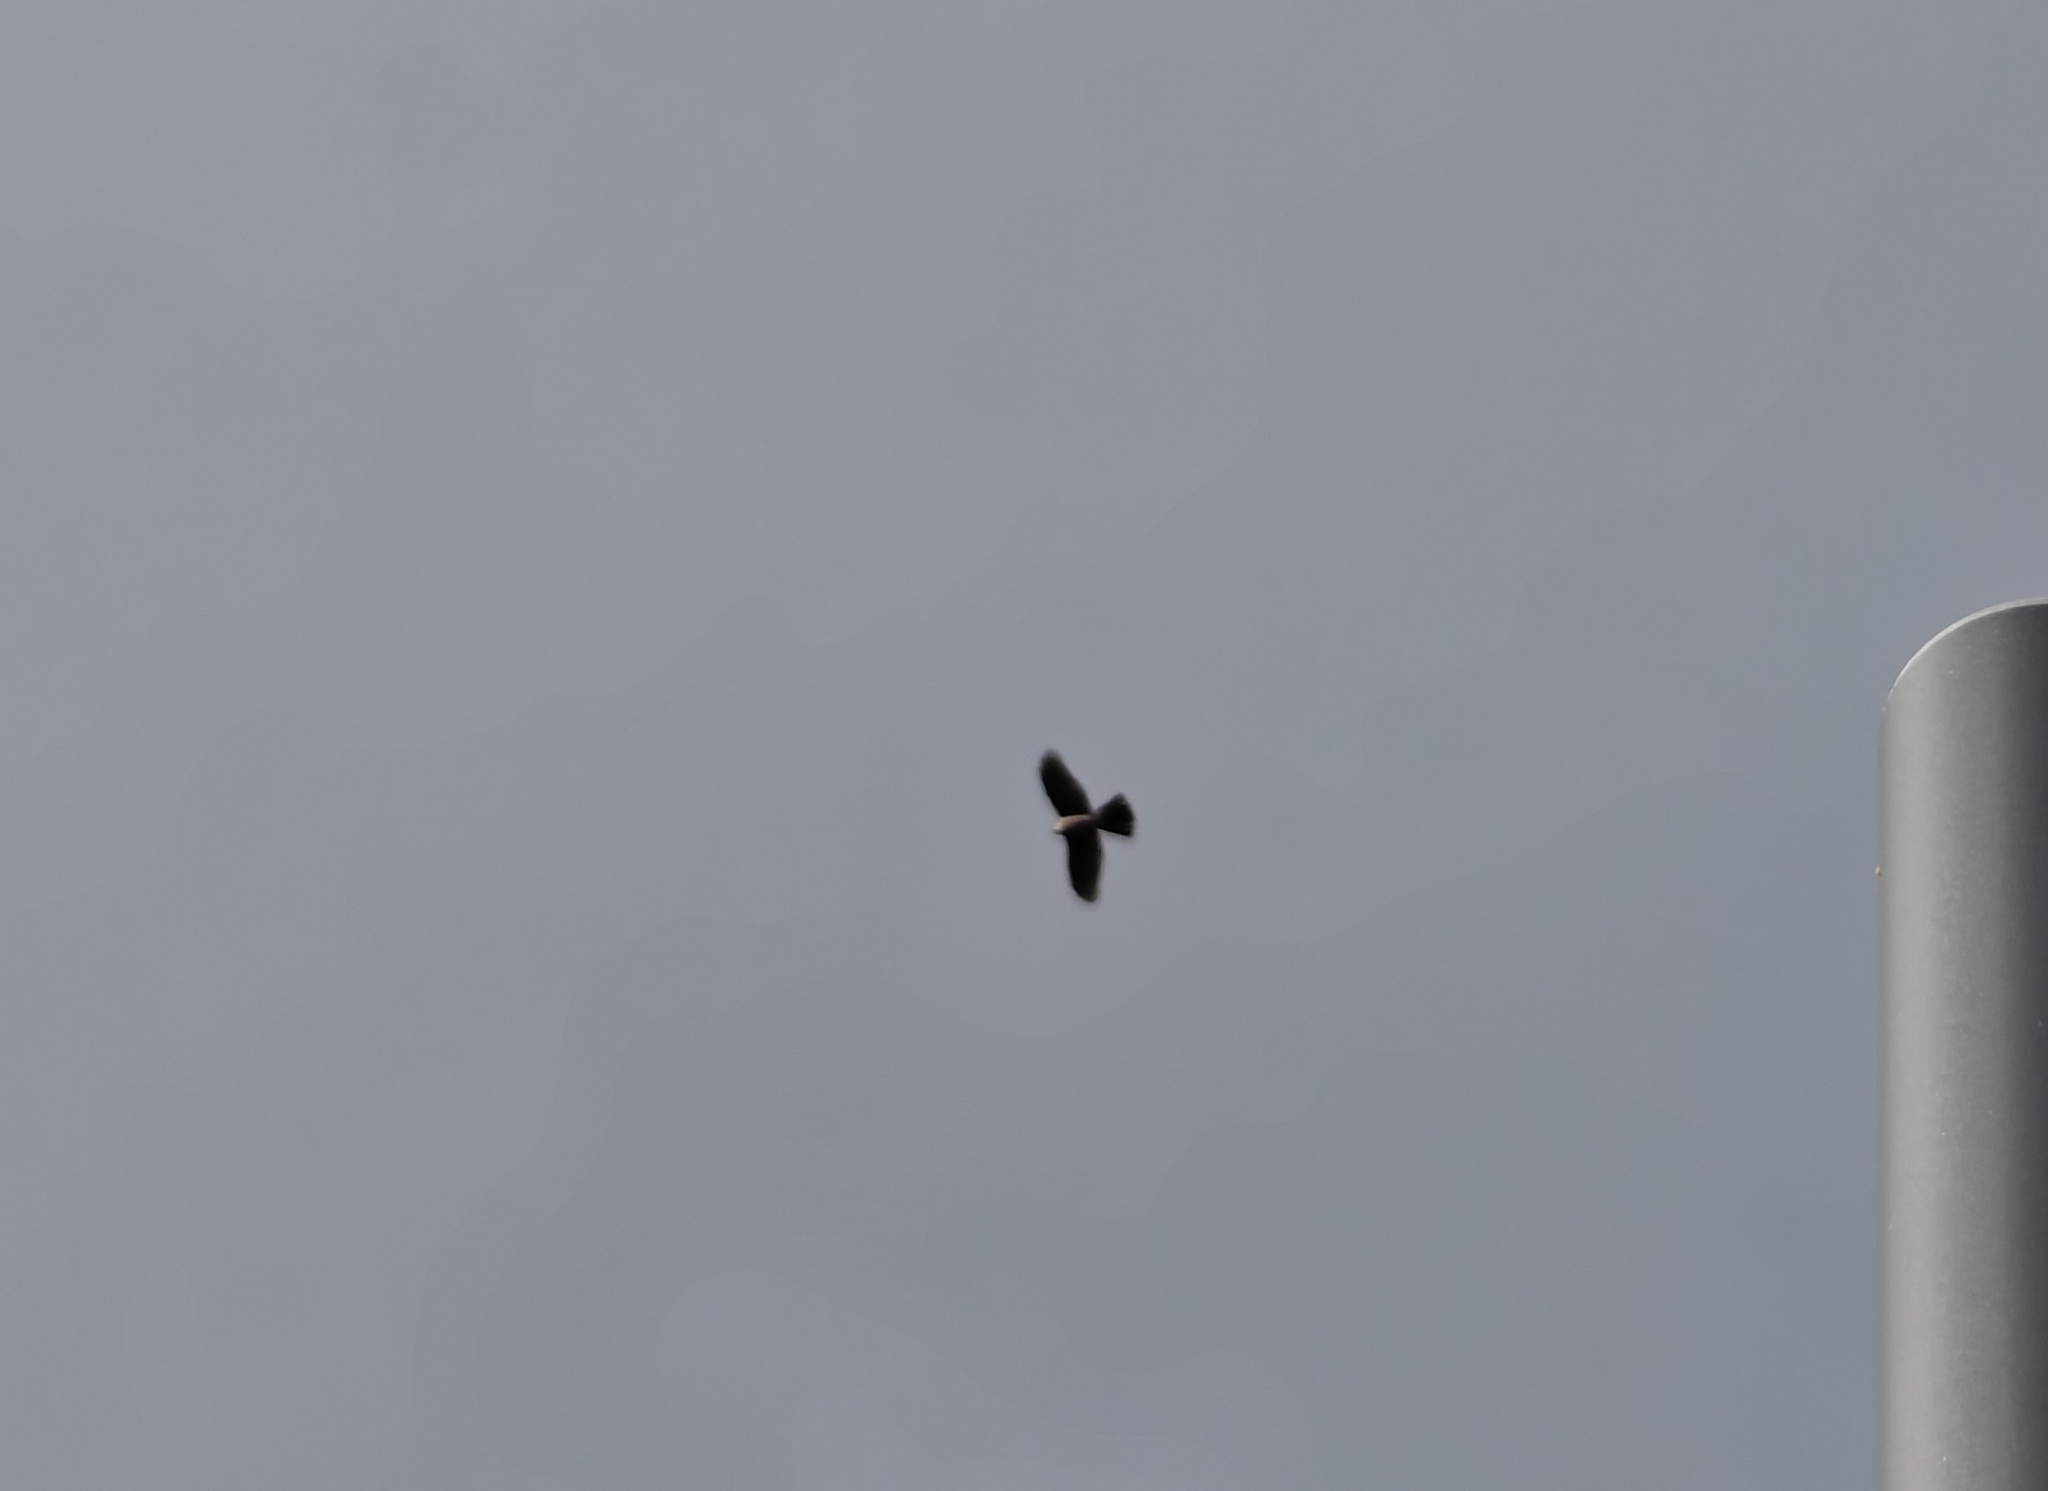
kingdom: Animalia
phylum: Chordata
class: Aves
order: Accipitriformes
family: Accipitridae
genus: Accipiter
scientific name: Accipiter nisus
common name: Eurasian sparrowhawk
